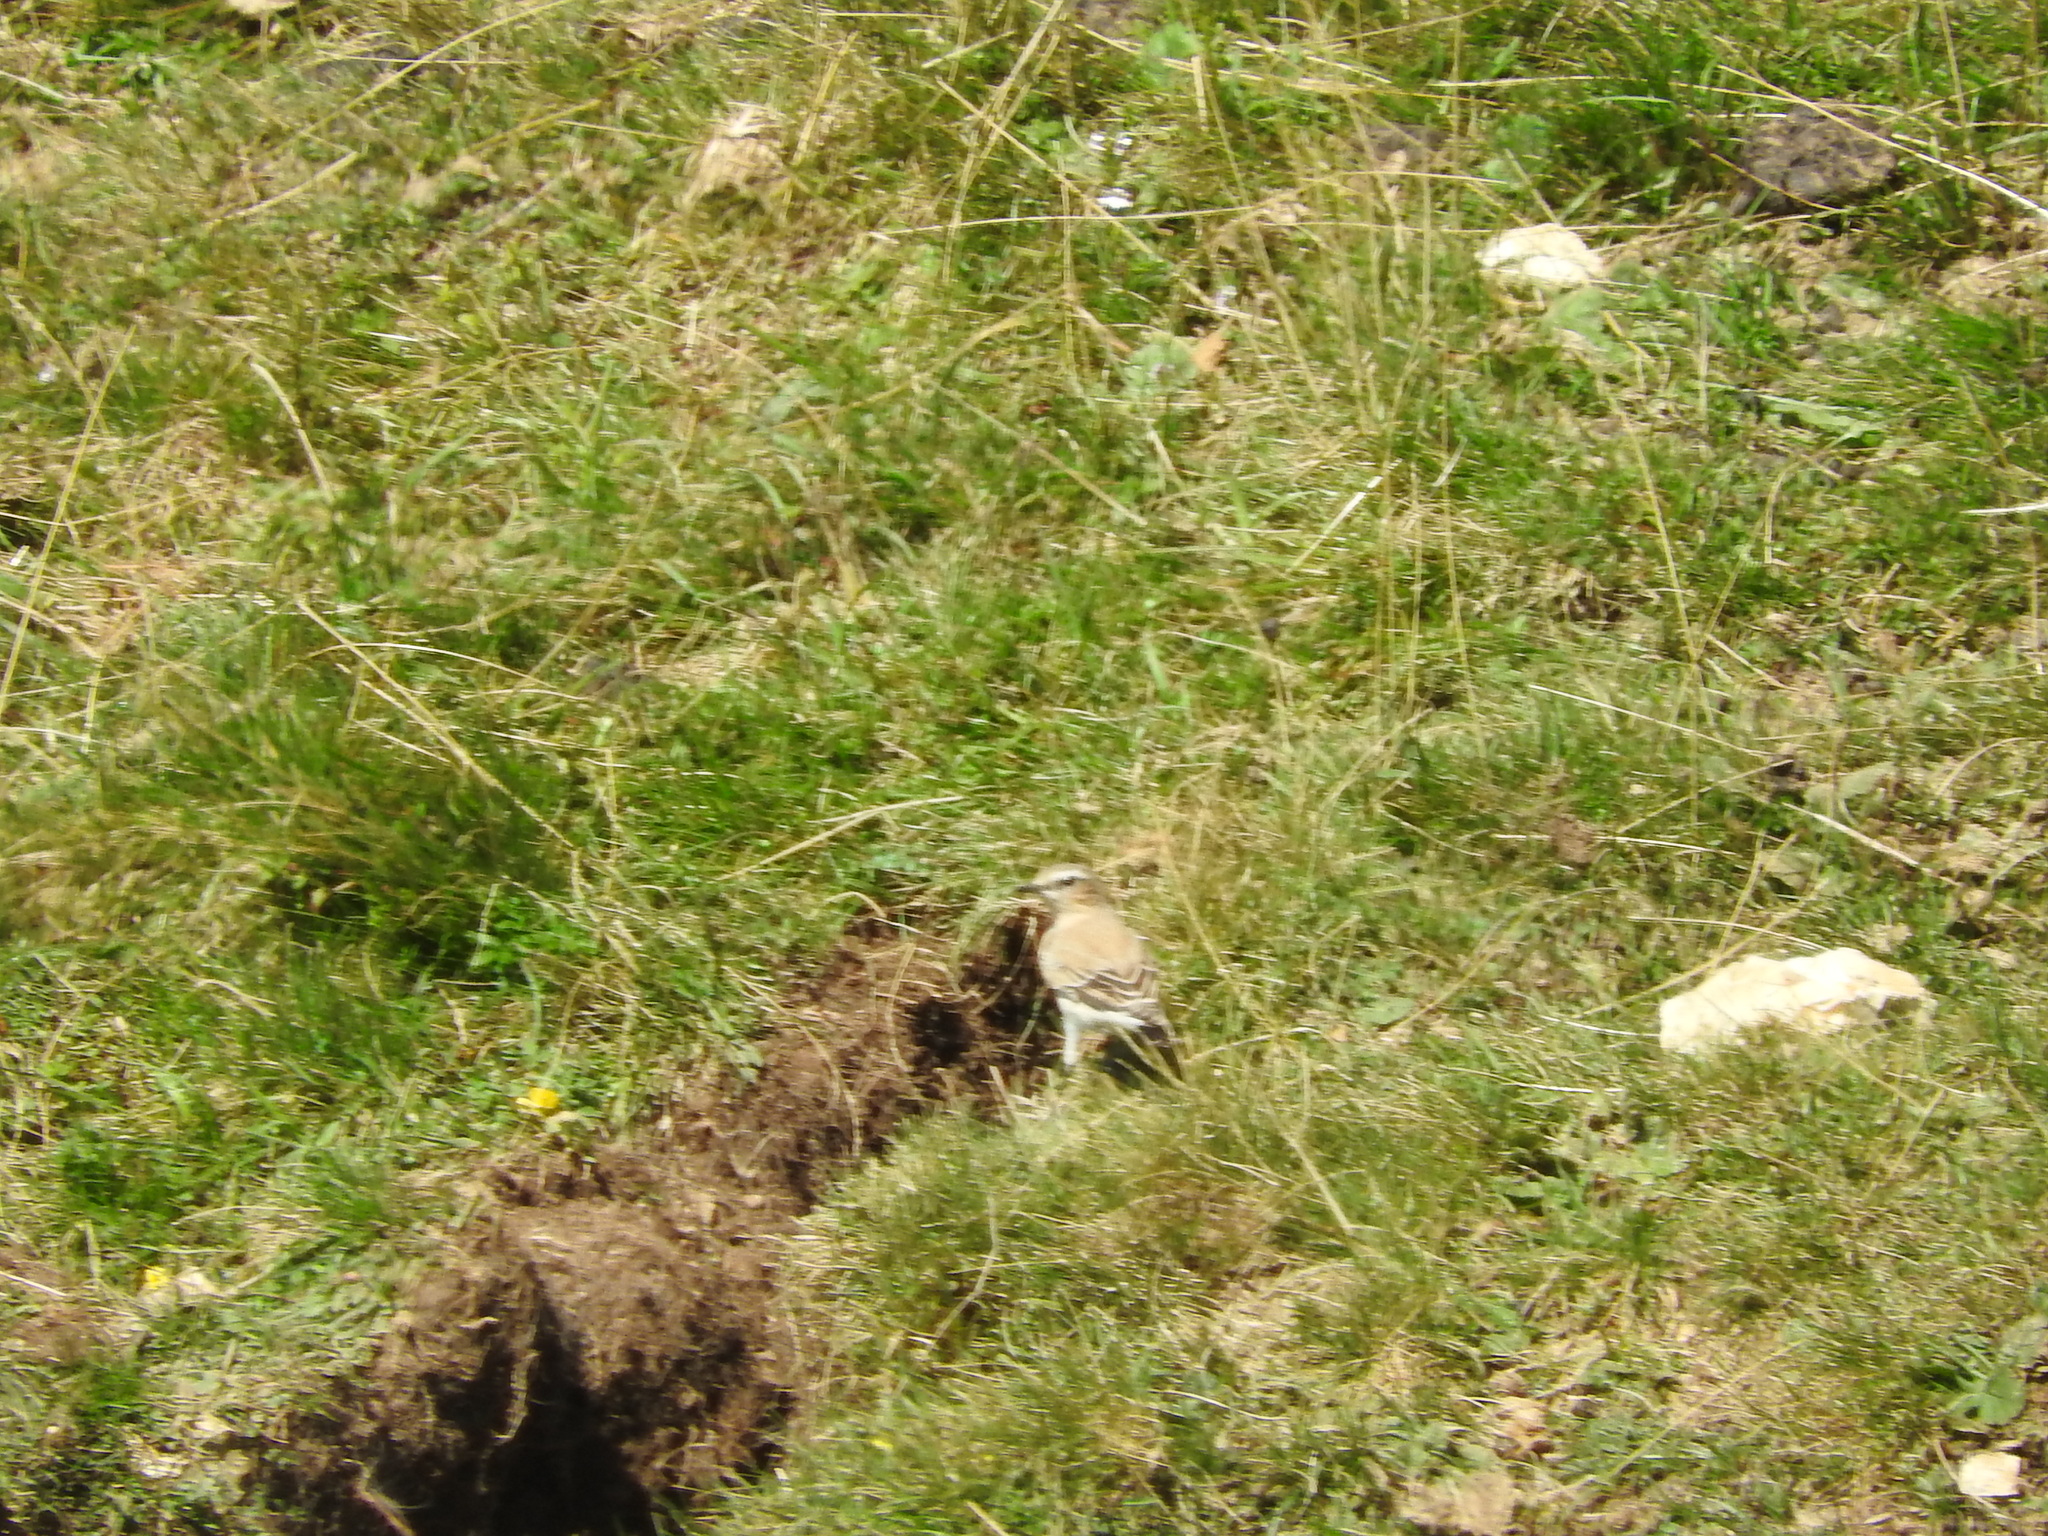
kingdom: Animalia
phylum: Chordata
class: Aves
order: Passeriformes
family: Muscicapidae
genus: Oenanthe
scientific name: Oenanthe oenanthe
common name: Northern wheatear
